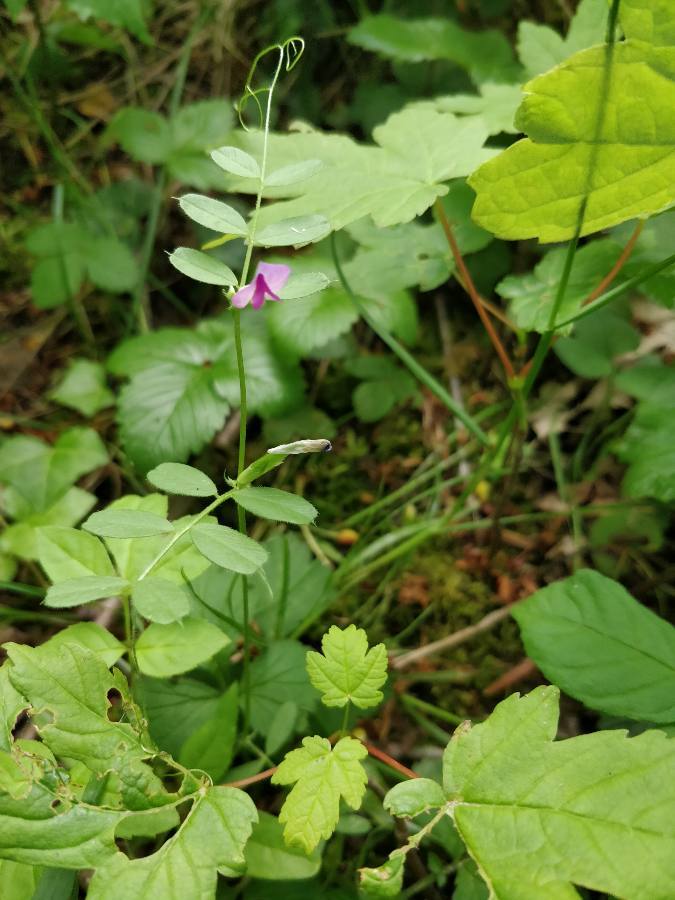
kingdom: Plantae
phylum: Tracheophyta
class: Magnoliopsida
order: Fabales
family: Fabaceae
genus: Vicia
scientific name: Vicia sativa
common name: Garden vetch
